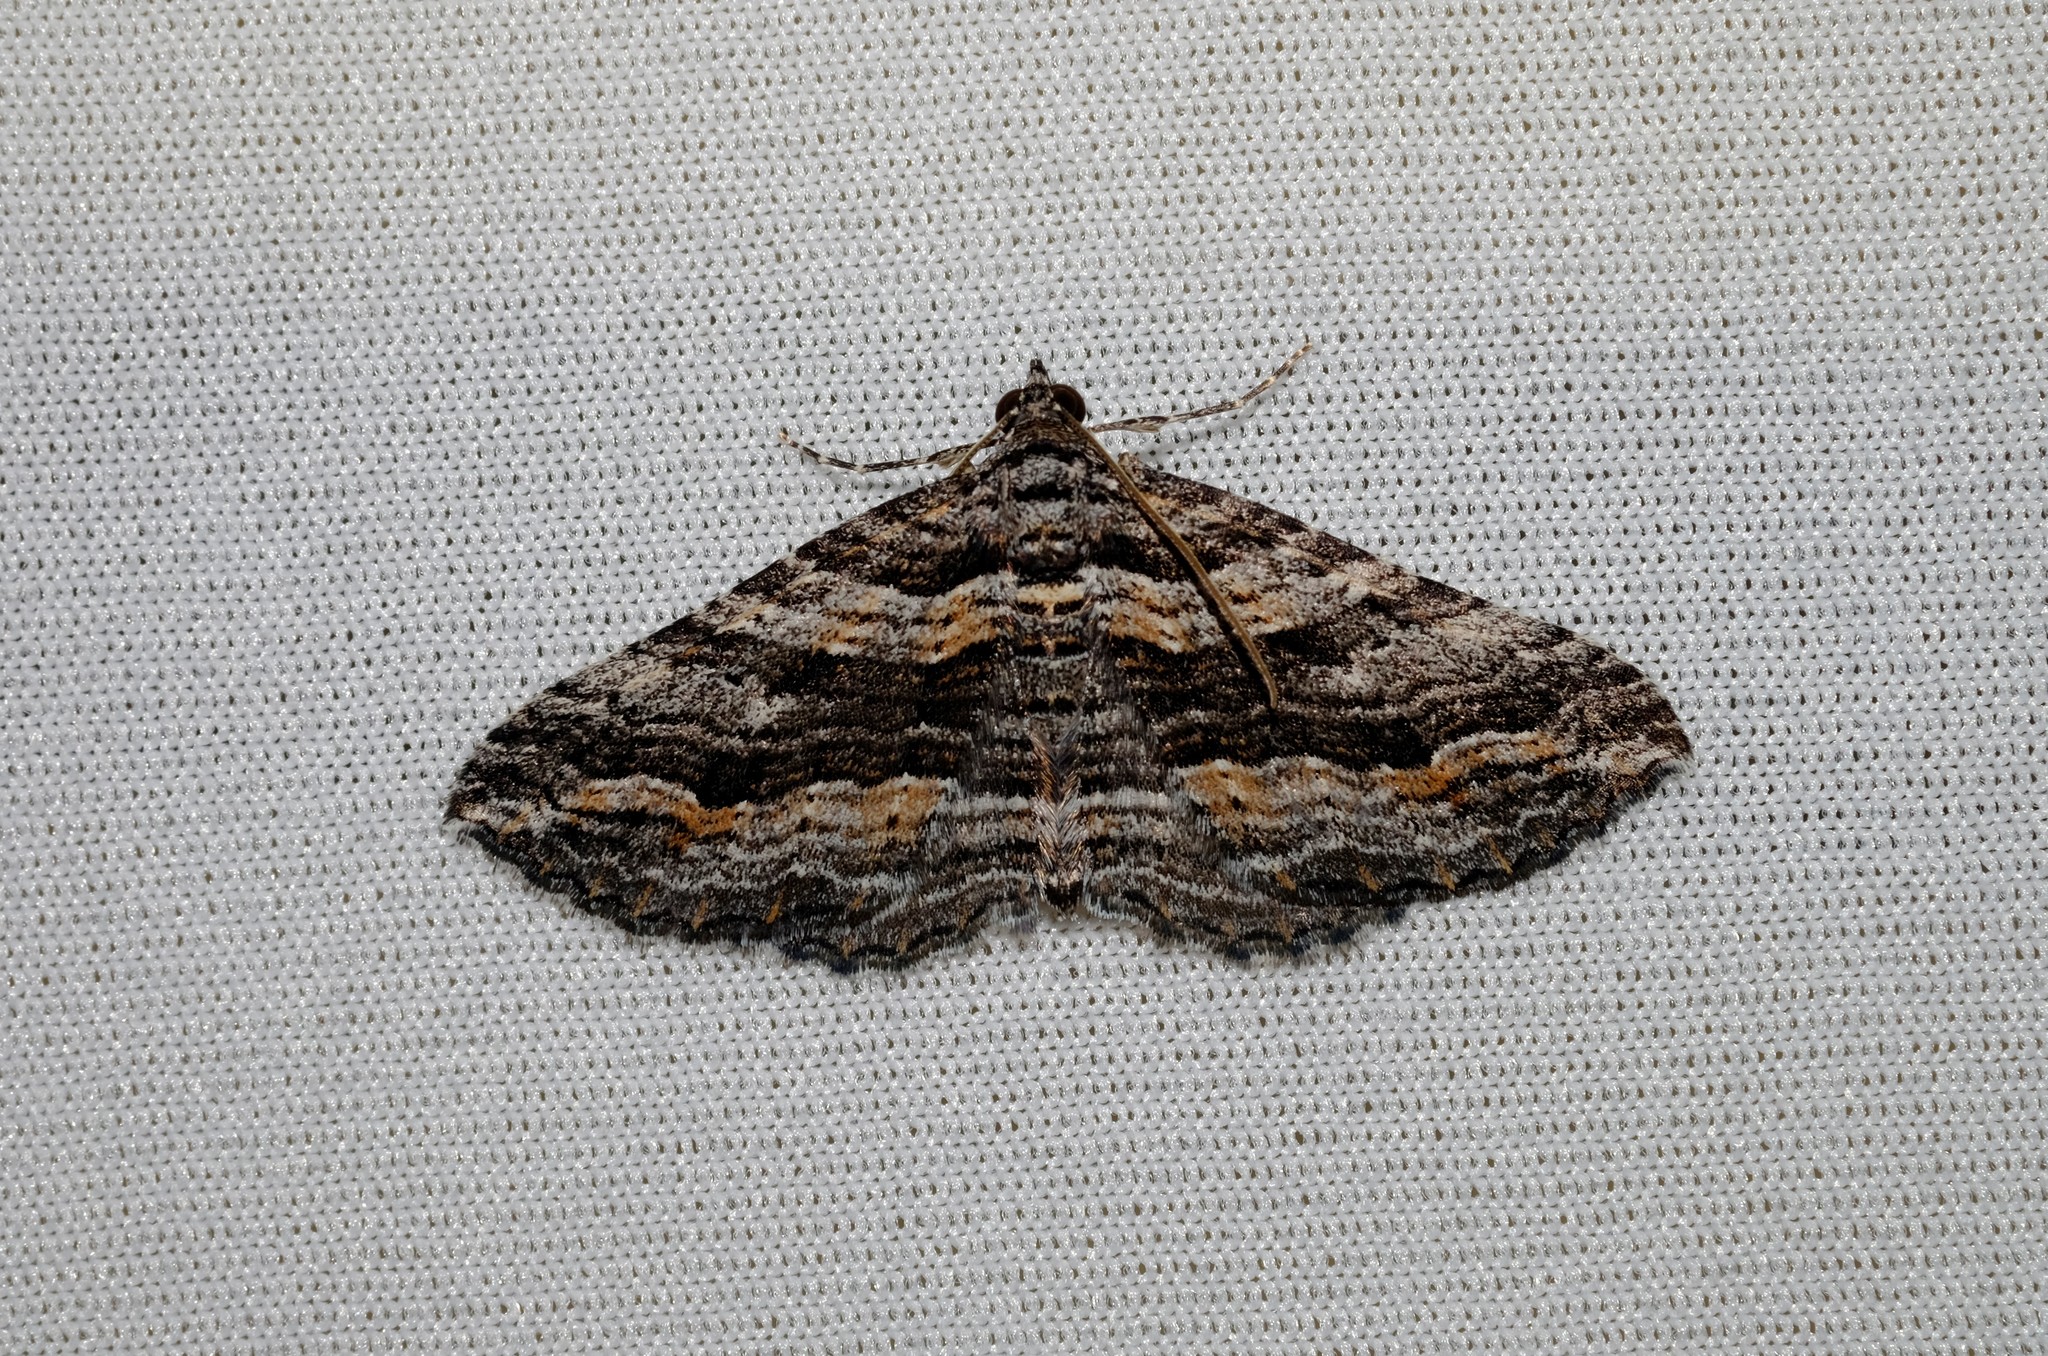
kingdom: Animalia
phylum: Arthropoda
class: Insecta
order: Lepidoptera
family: Geometridae
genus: Chrysolarentia
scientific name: Chrysolarentia severata
